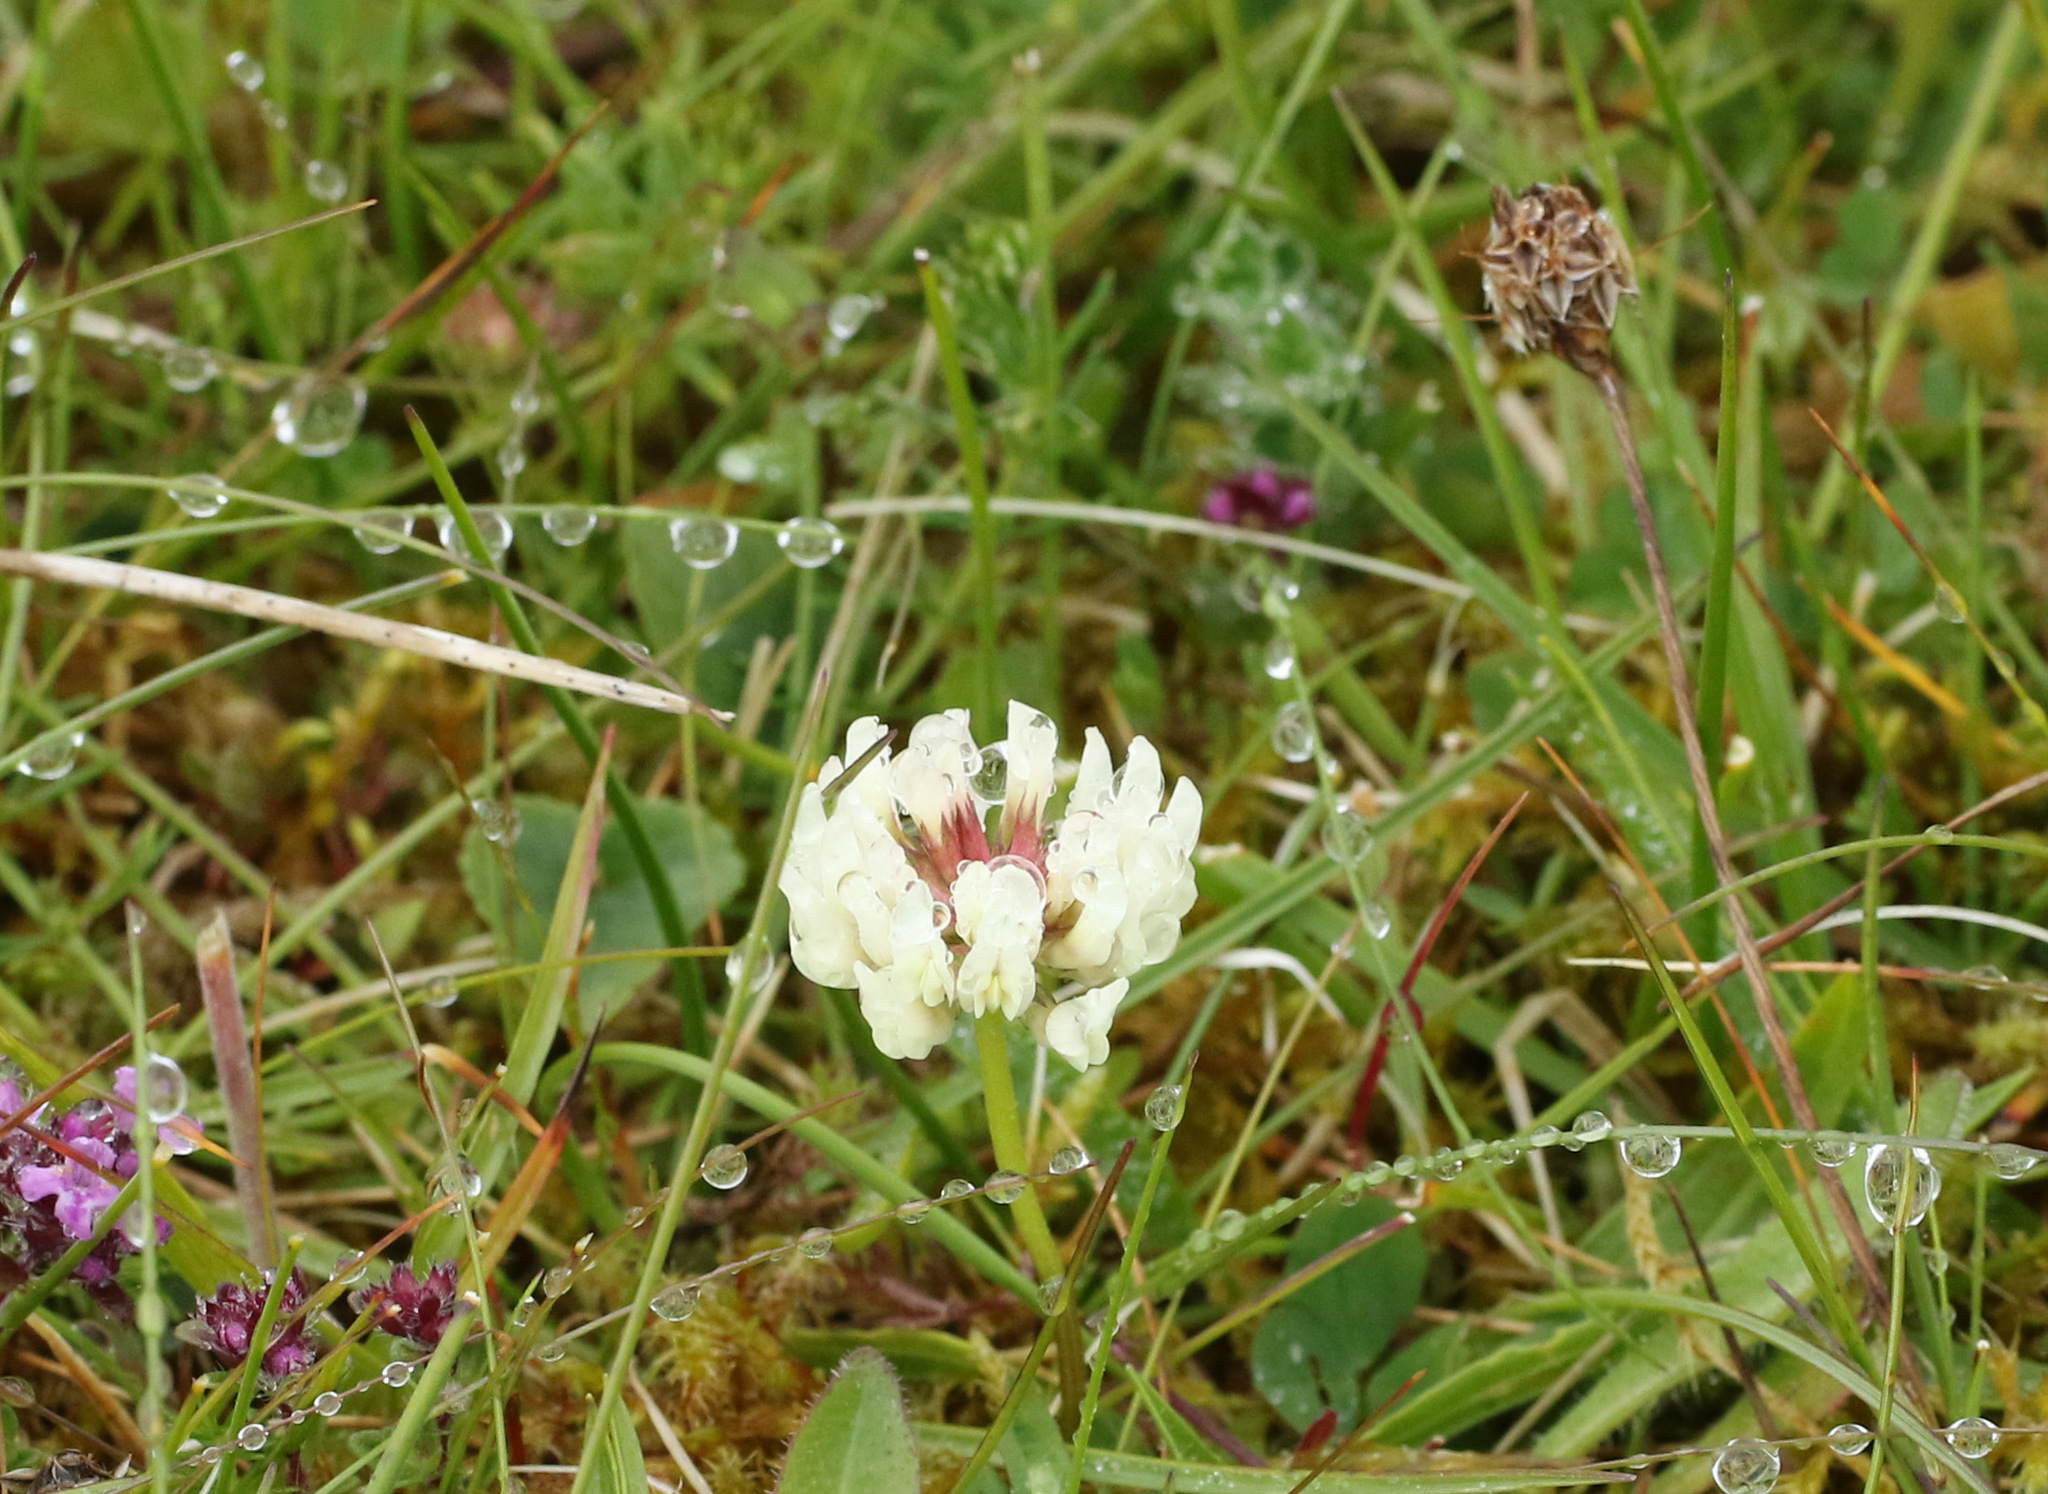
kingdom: Plantae
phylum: Tracheophyta
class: Magnoliopsida
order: Fabales
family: Fabaceae
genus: Trifolium
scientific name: Trifolium repens
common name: White clover
